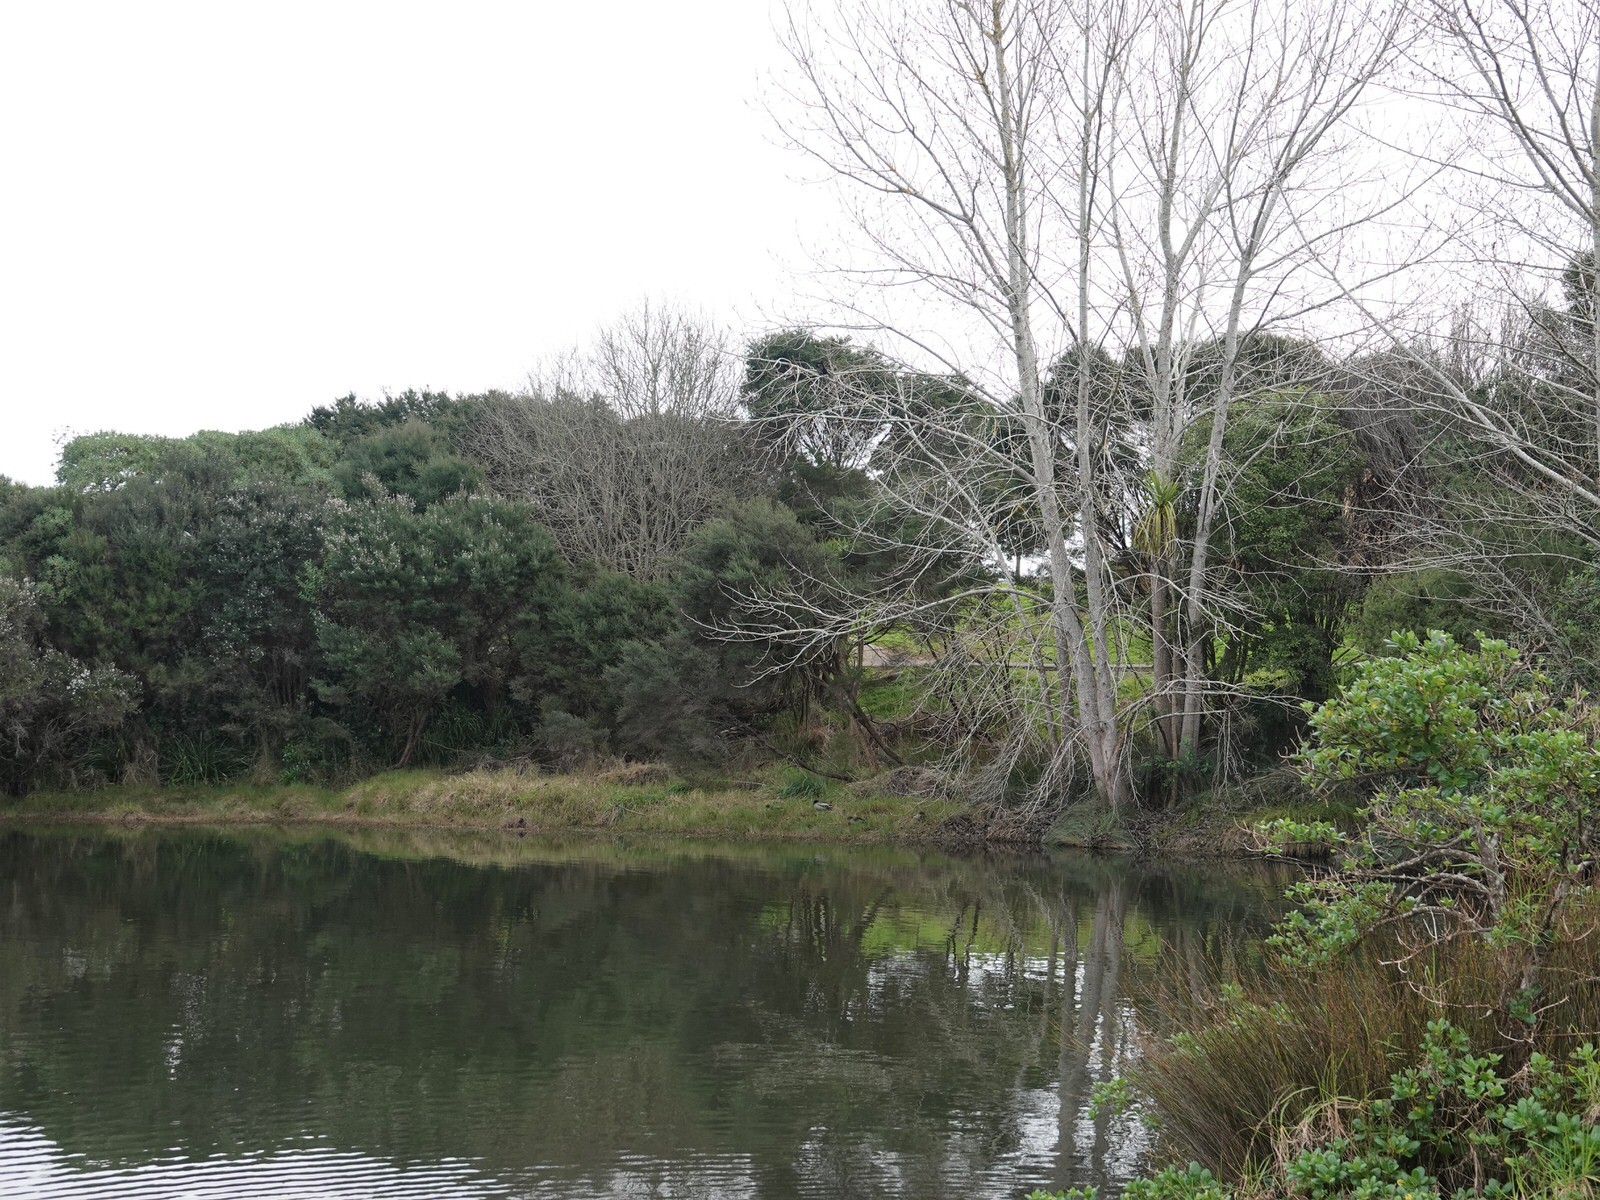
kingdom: Animalia
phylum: Chordata
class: Aves
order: Suliformes
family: Phalacrocoracidae
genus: Phalacrocorax
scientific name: Phalacrocorax sulcirostris
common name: Little black cormorant
